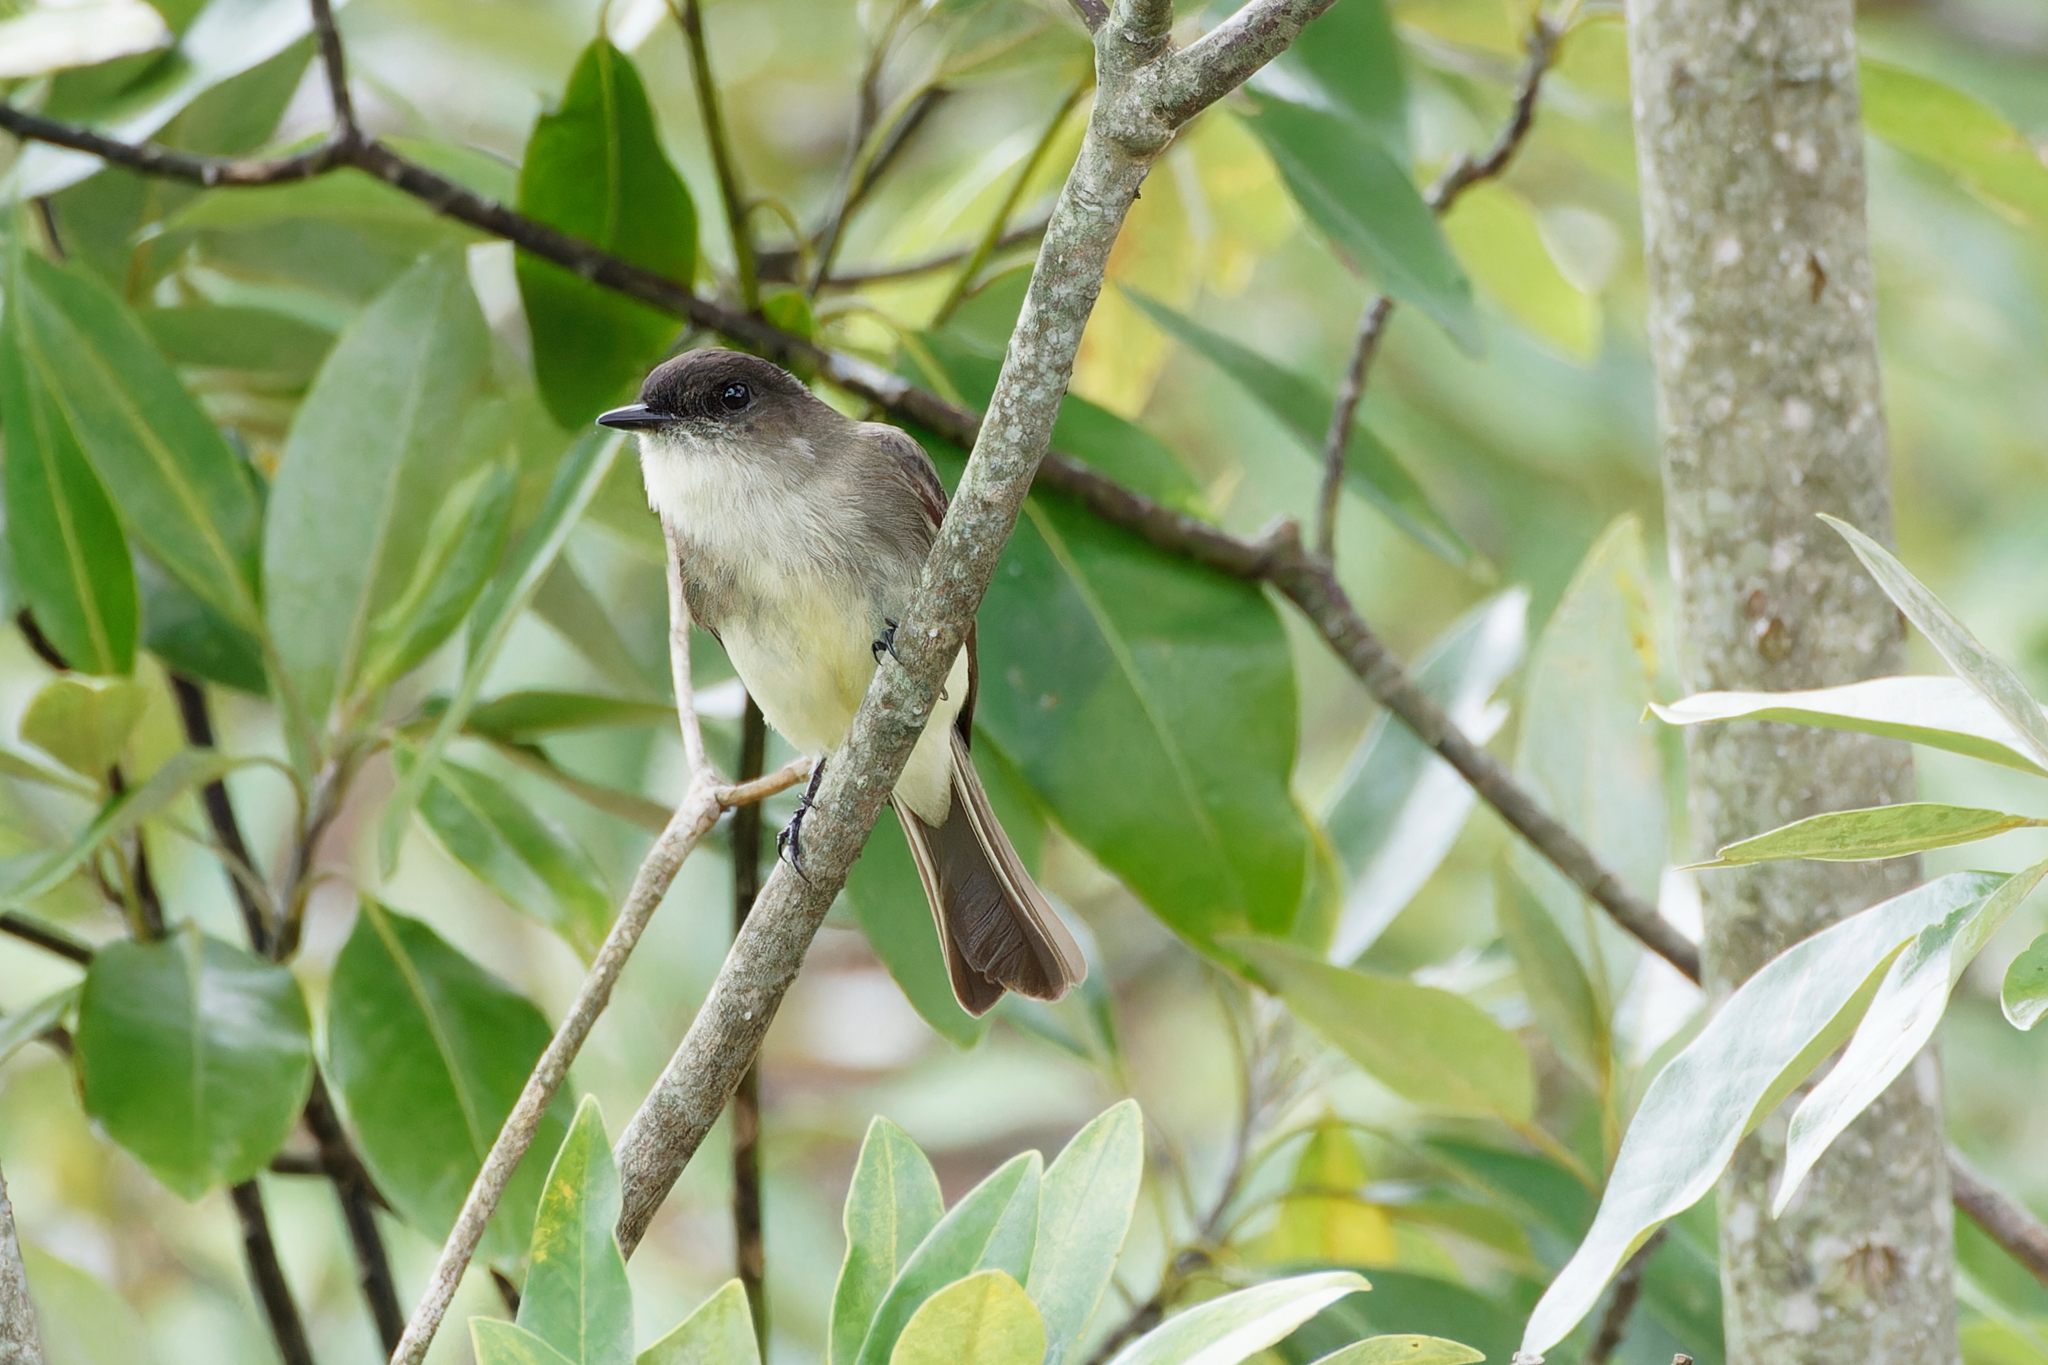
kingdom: Animalia
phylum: Chordata
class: Aves
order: Passeriformes
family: Tyrannidae
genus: Sayornis
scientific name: Sayornis phoebe
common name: Eastern phoebe
